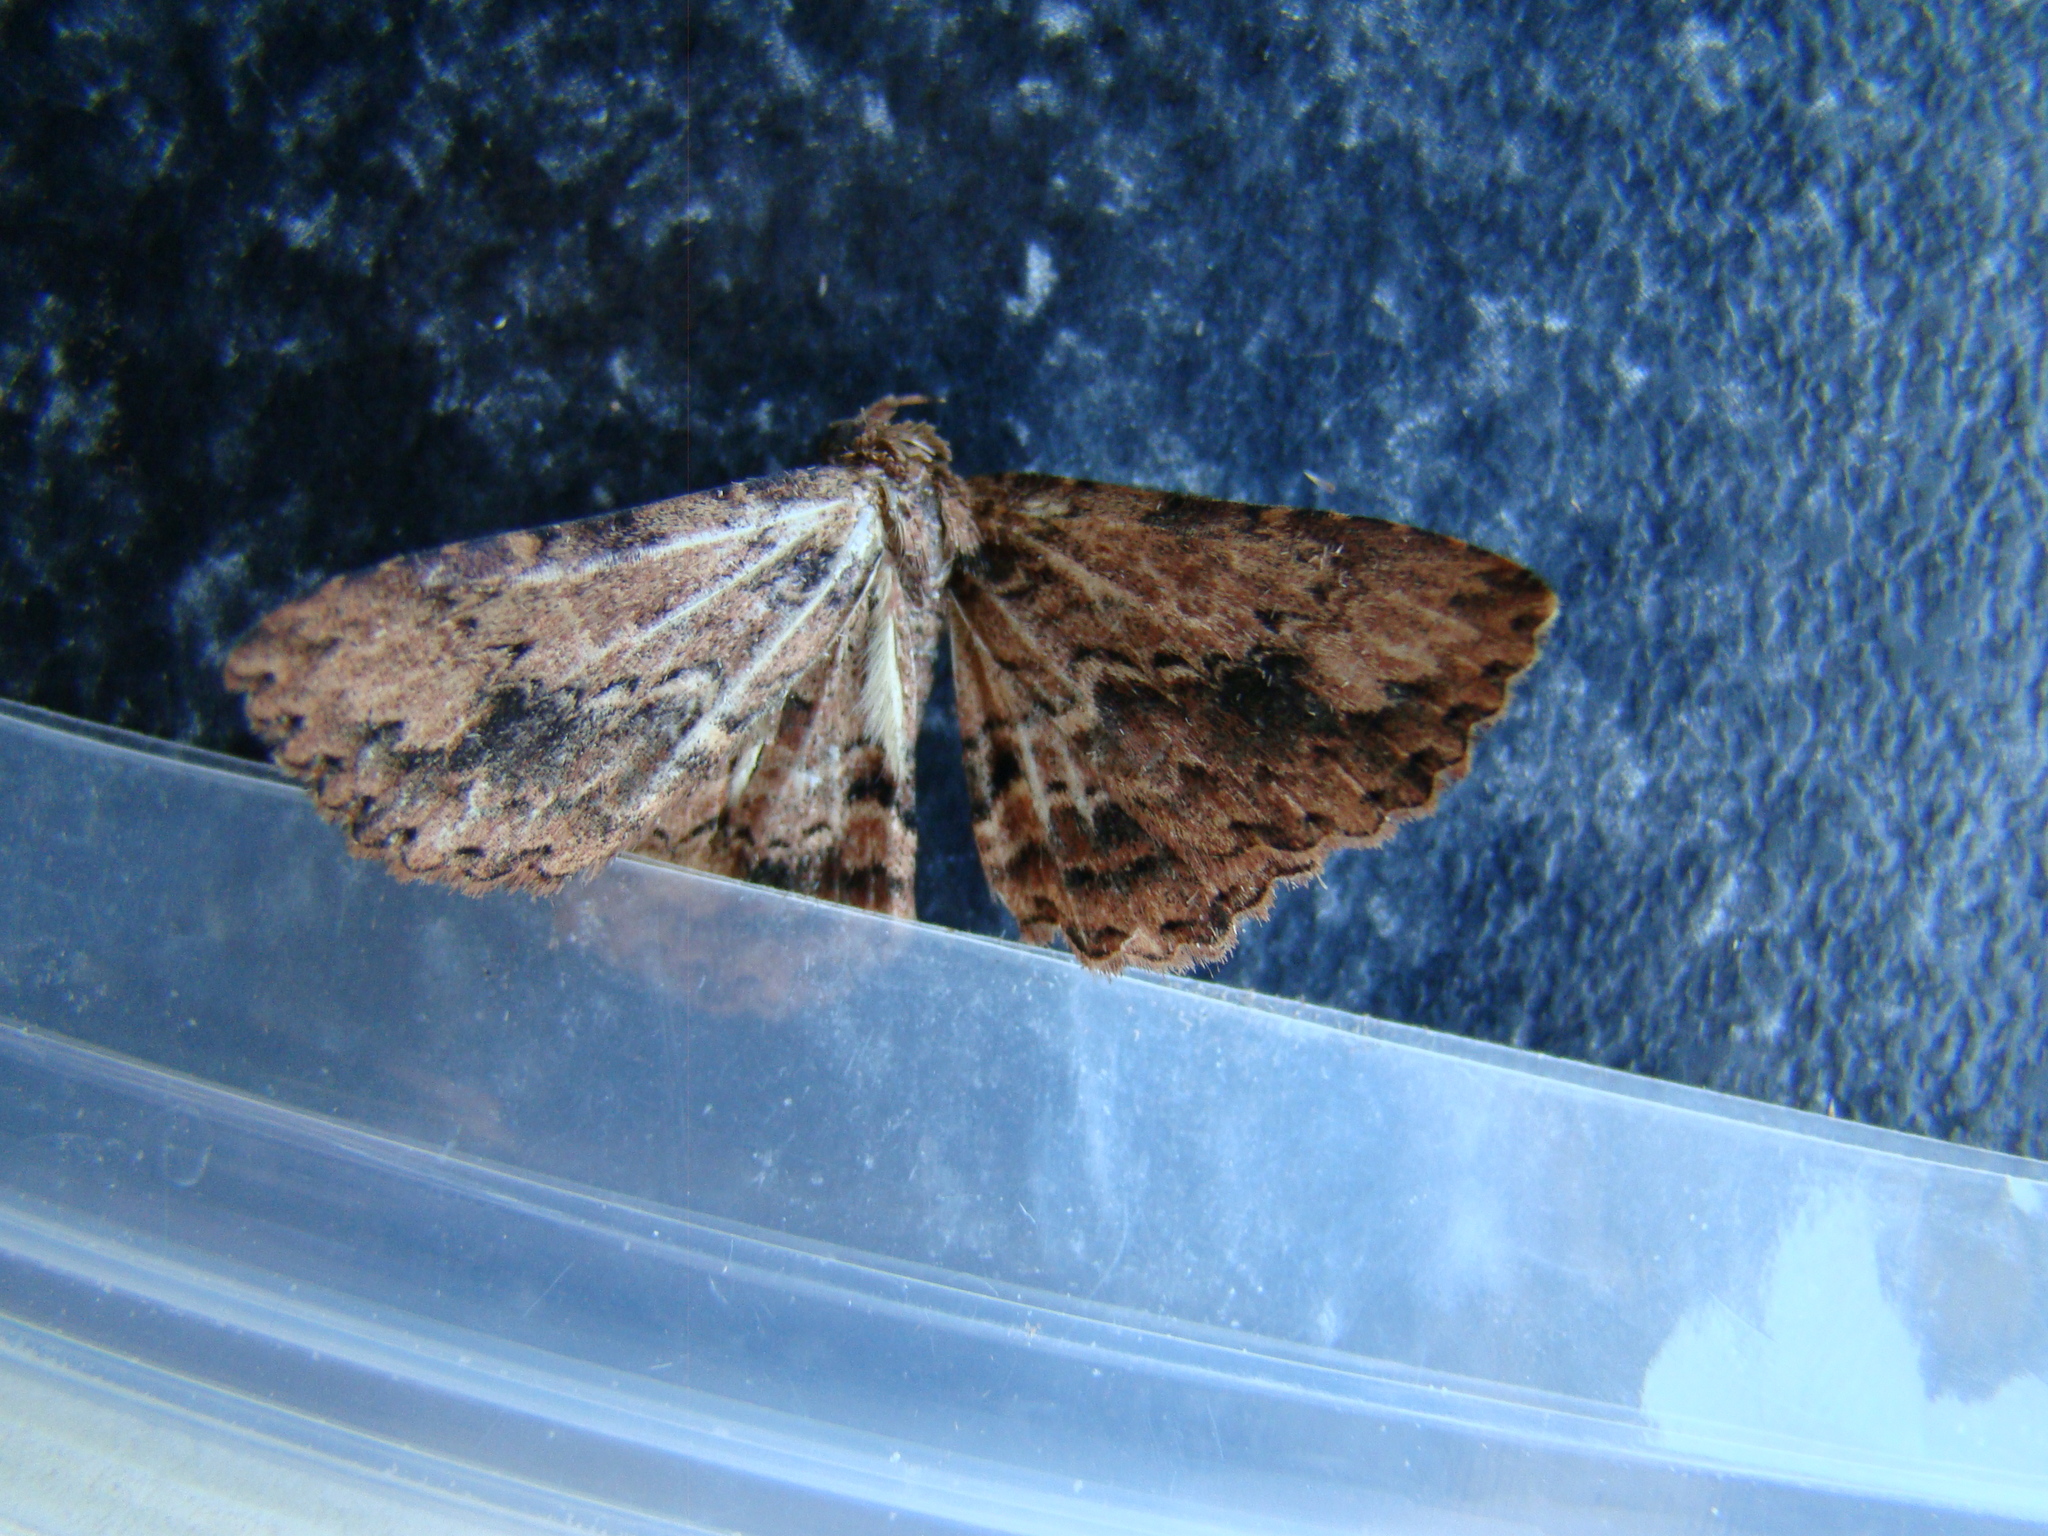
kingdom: Animalia
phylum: Arthropoda
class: Insecta
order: Lepidoptera
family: Erebidae
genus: Artigisa
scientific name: Artigisa melanephele
